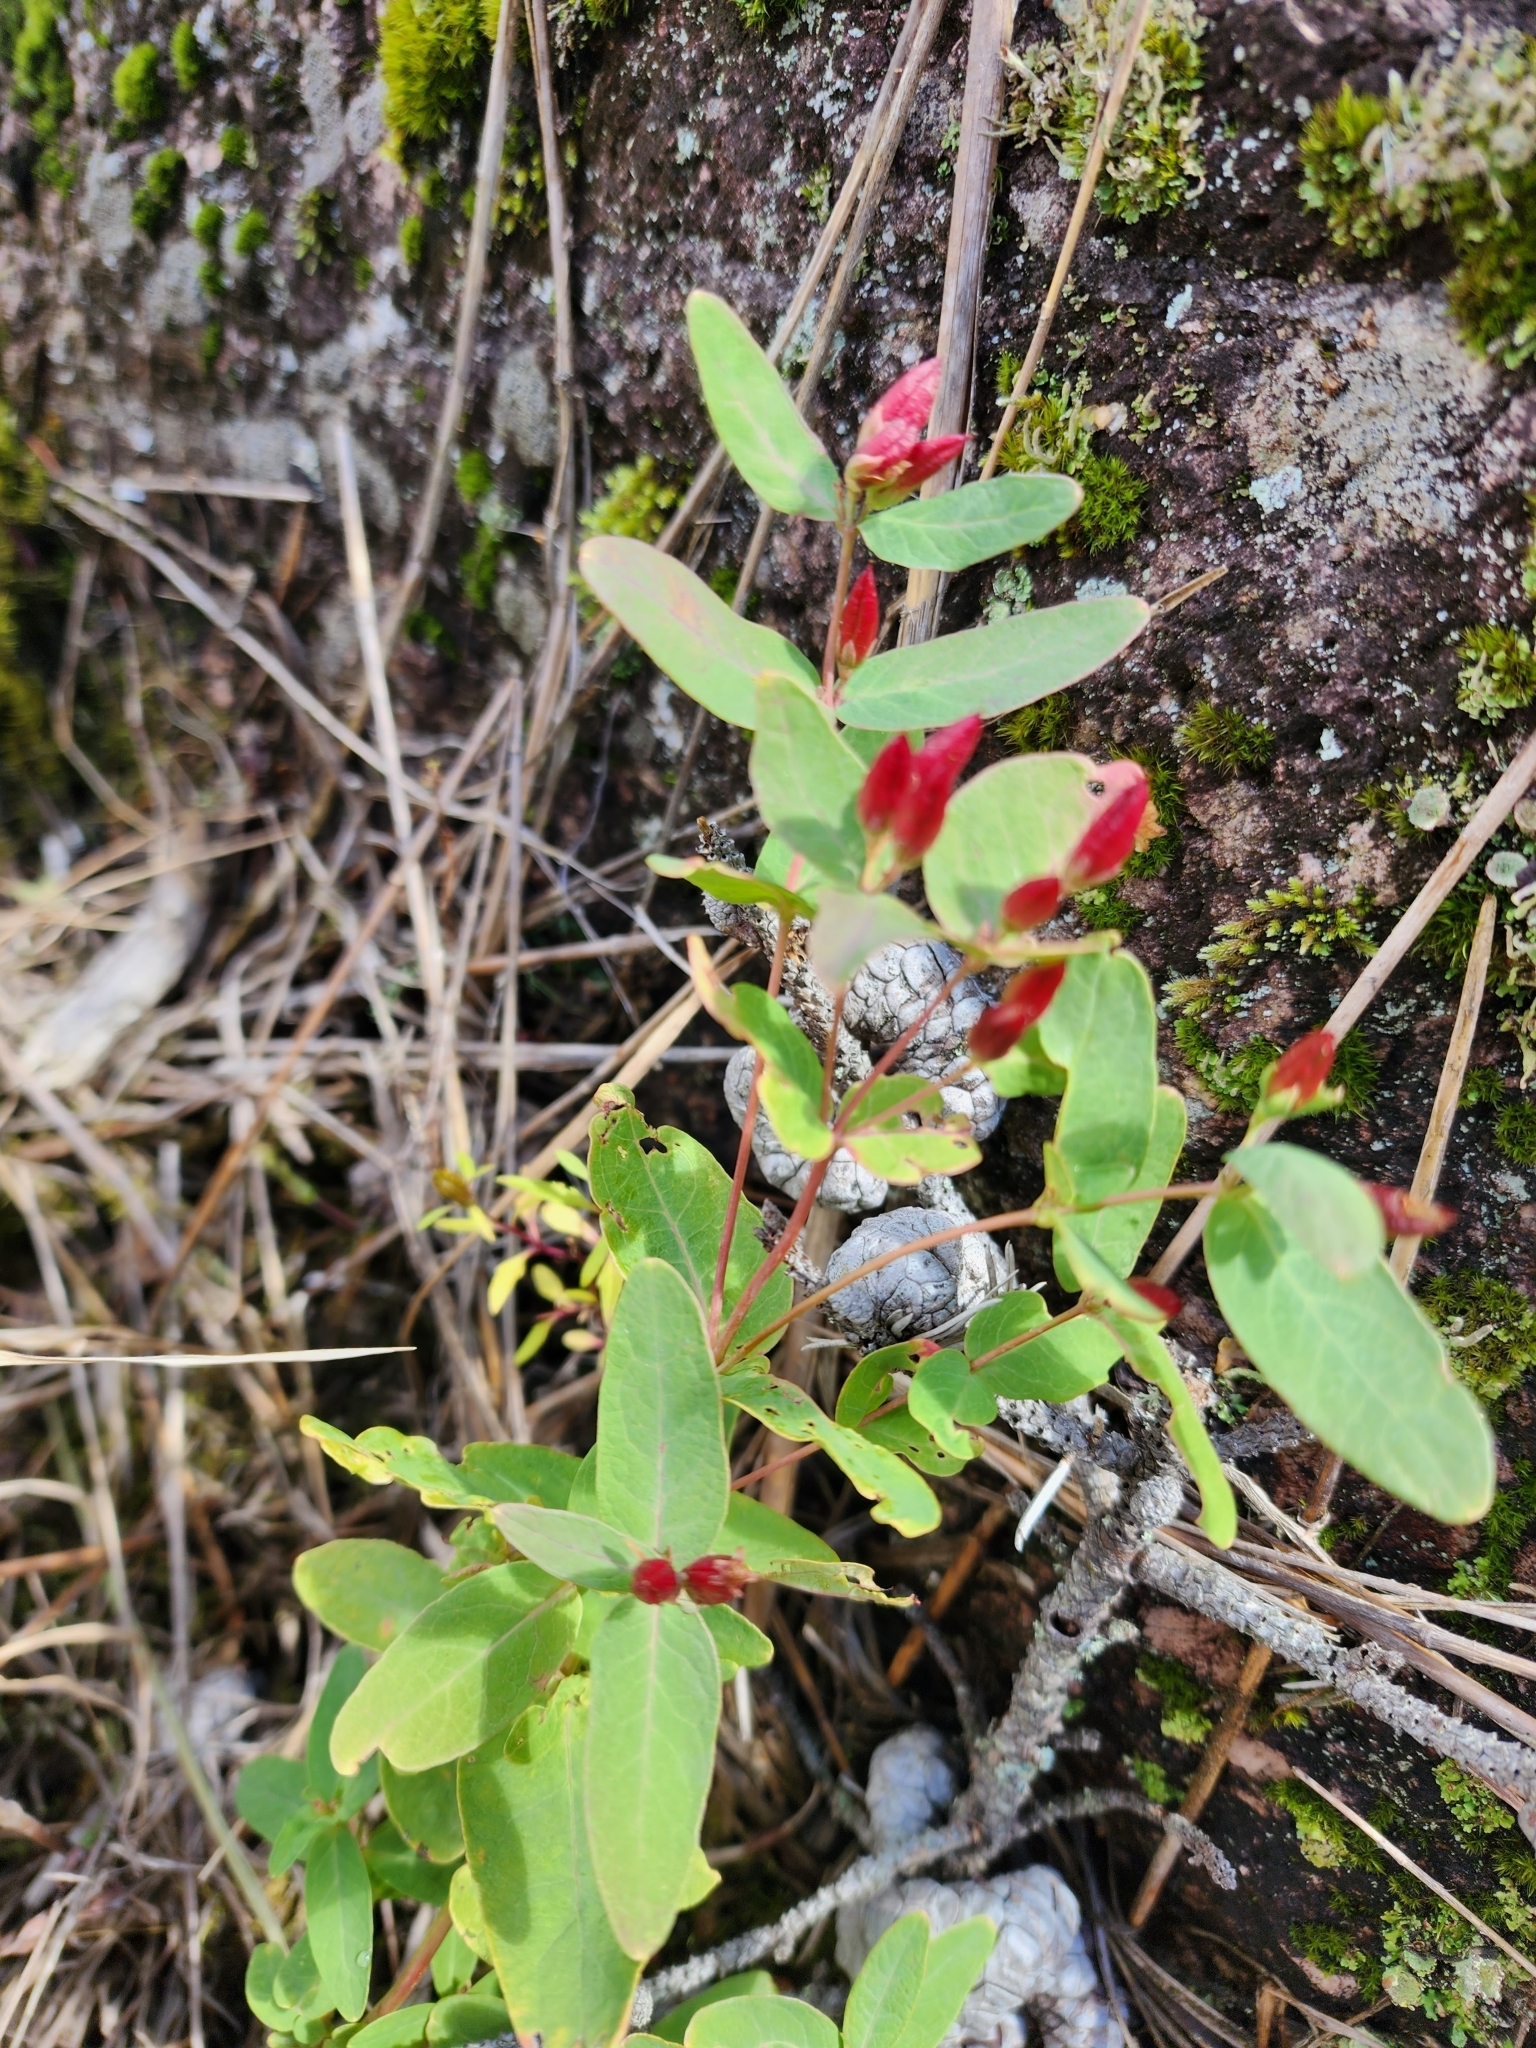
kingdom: Plantae
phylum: Tracheophyta
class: Magnoliopsida
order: Malpighiales
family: Hypericaceae
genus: Triadenum
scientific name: Triadenum fraseri
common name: Fraser's marsh st. johnswort
